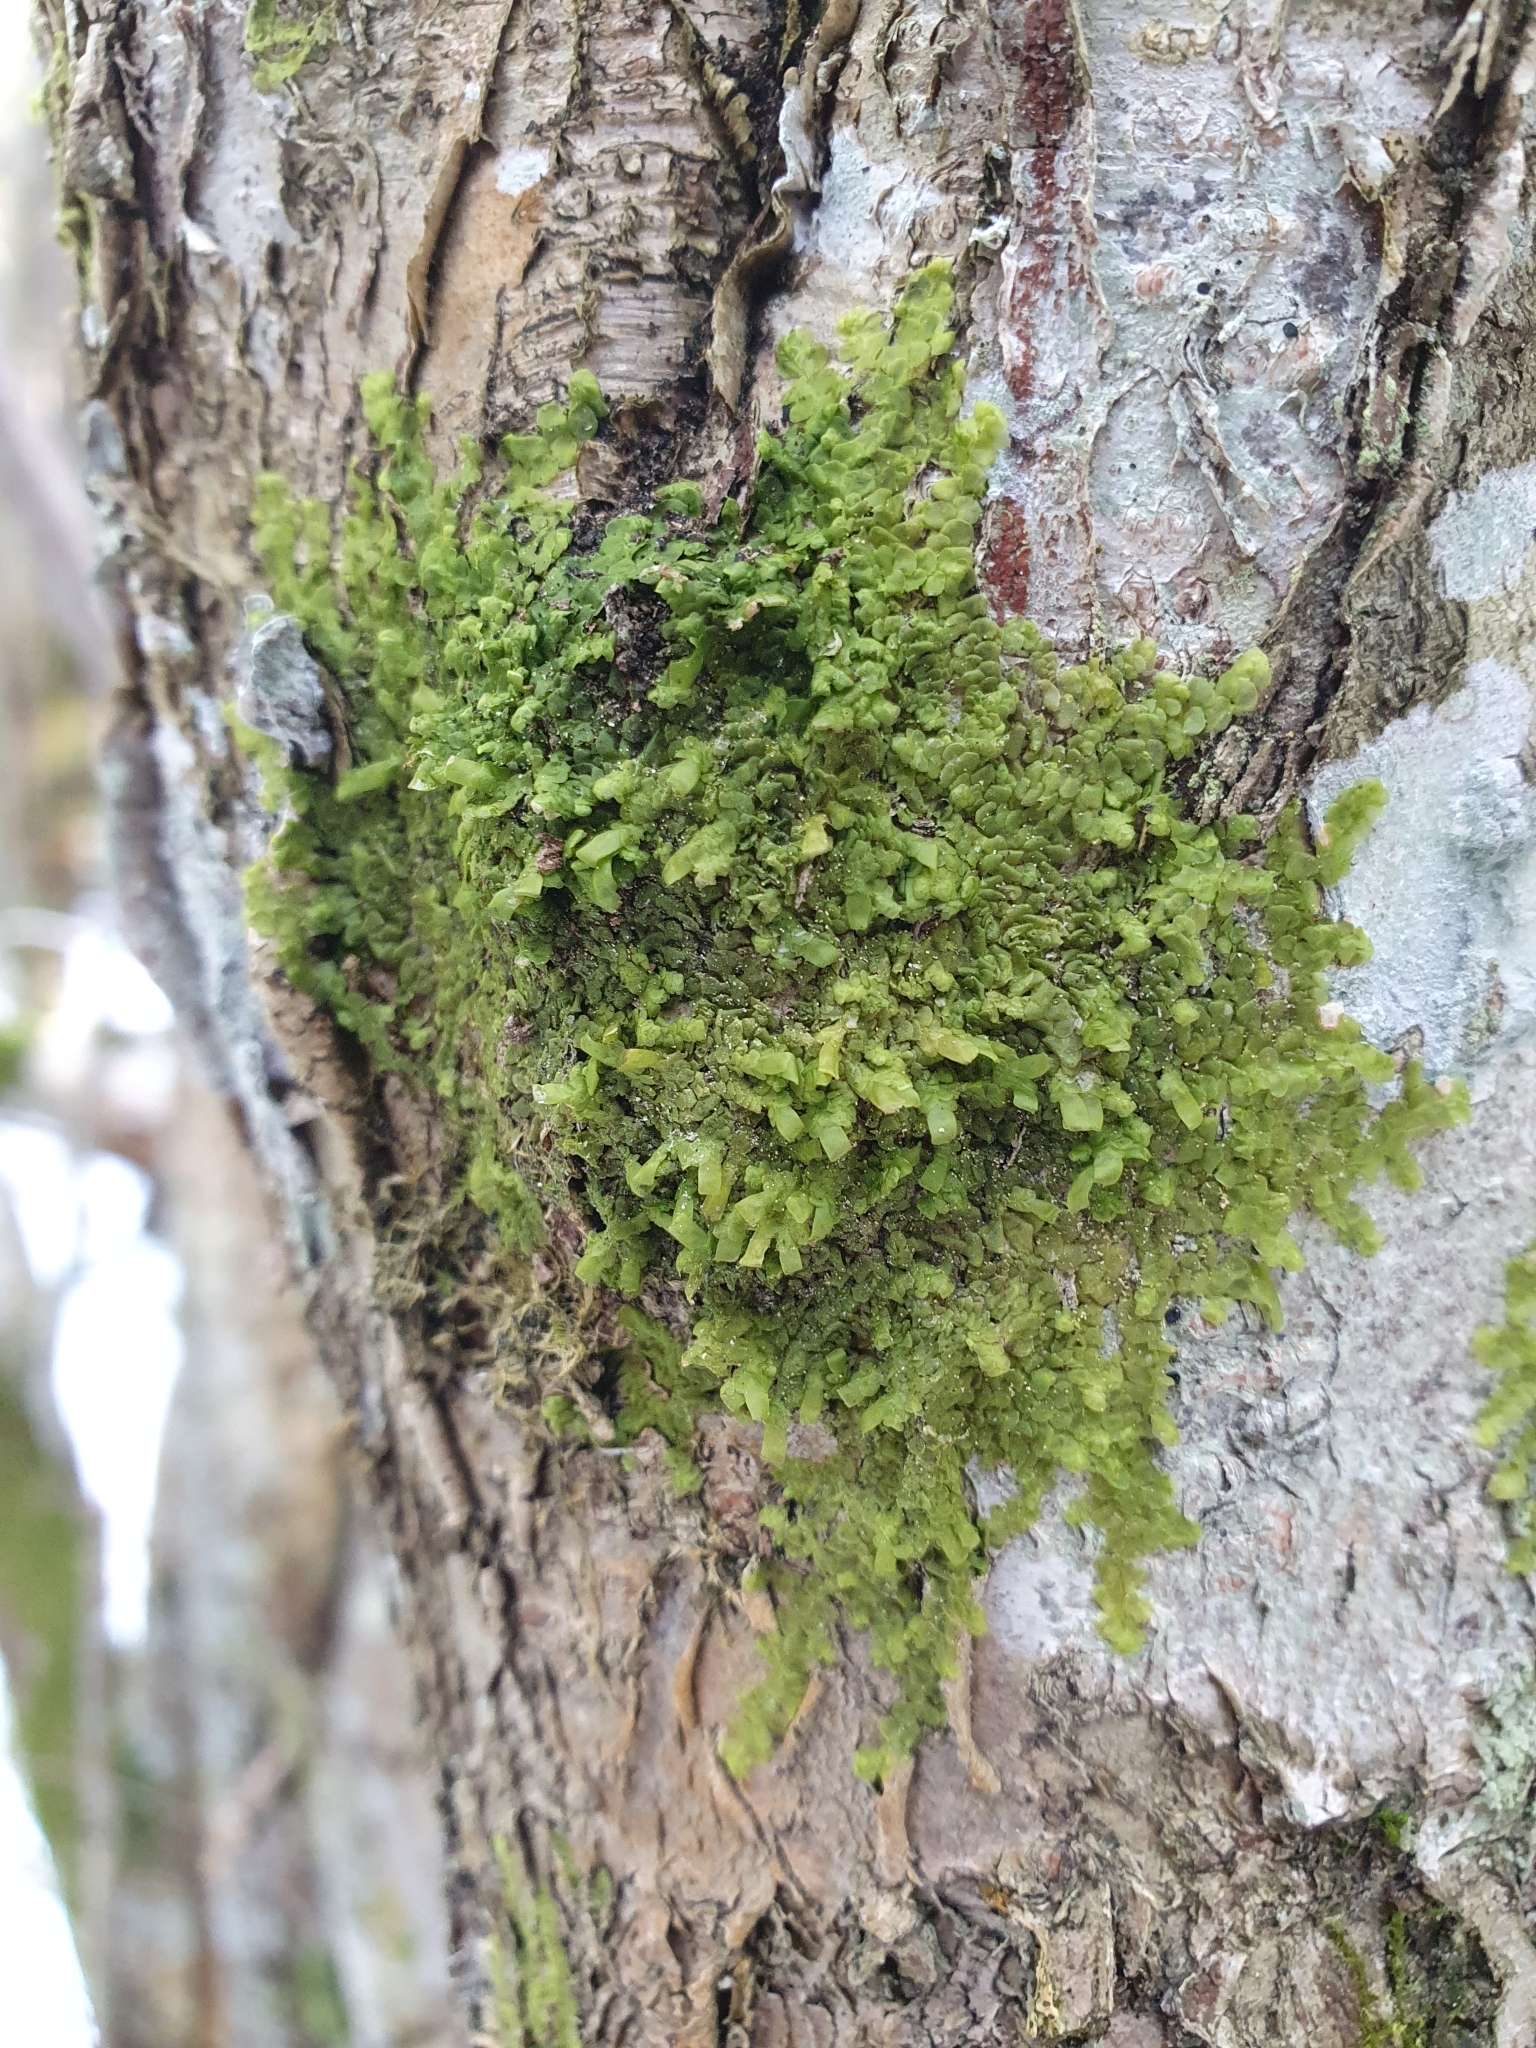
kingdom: Plantae
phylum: Marchantiophyta
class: Jungermanniopsida
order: Porellales
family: Radulaceae
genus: Radula
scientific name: Radula complanata
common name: Flat-leaved scalewort
